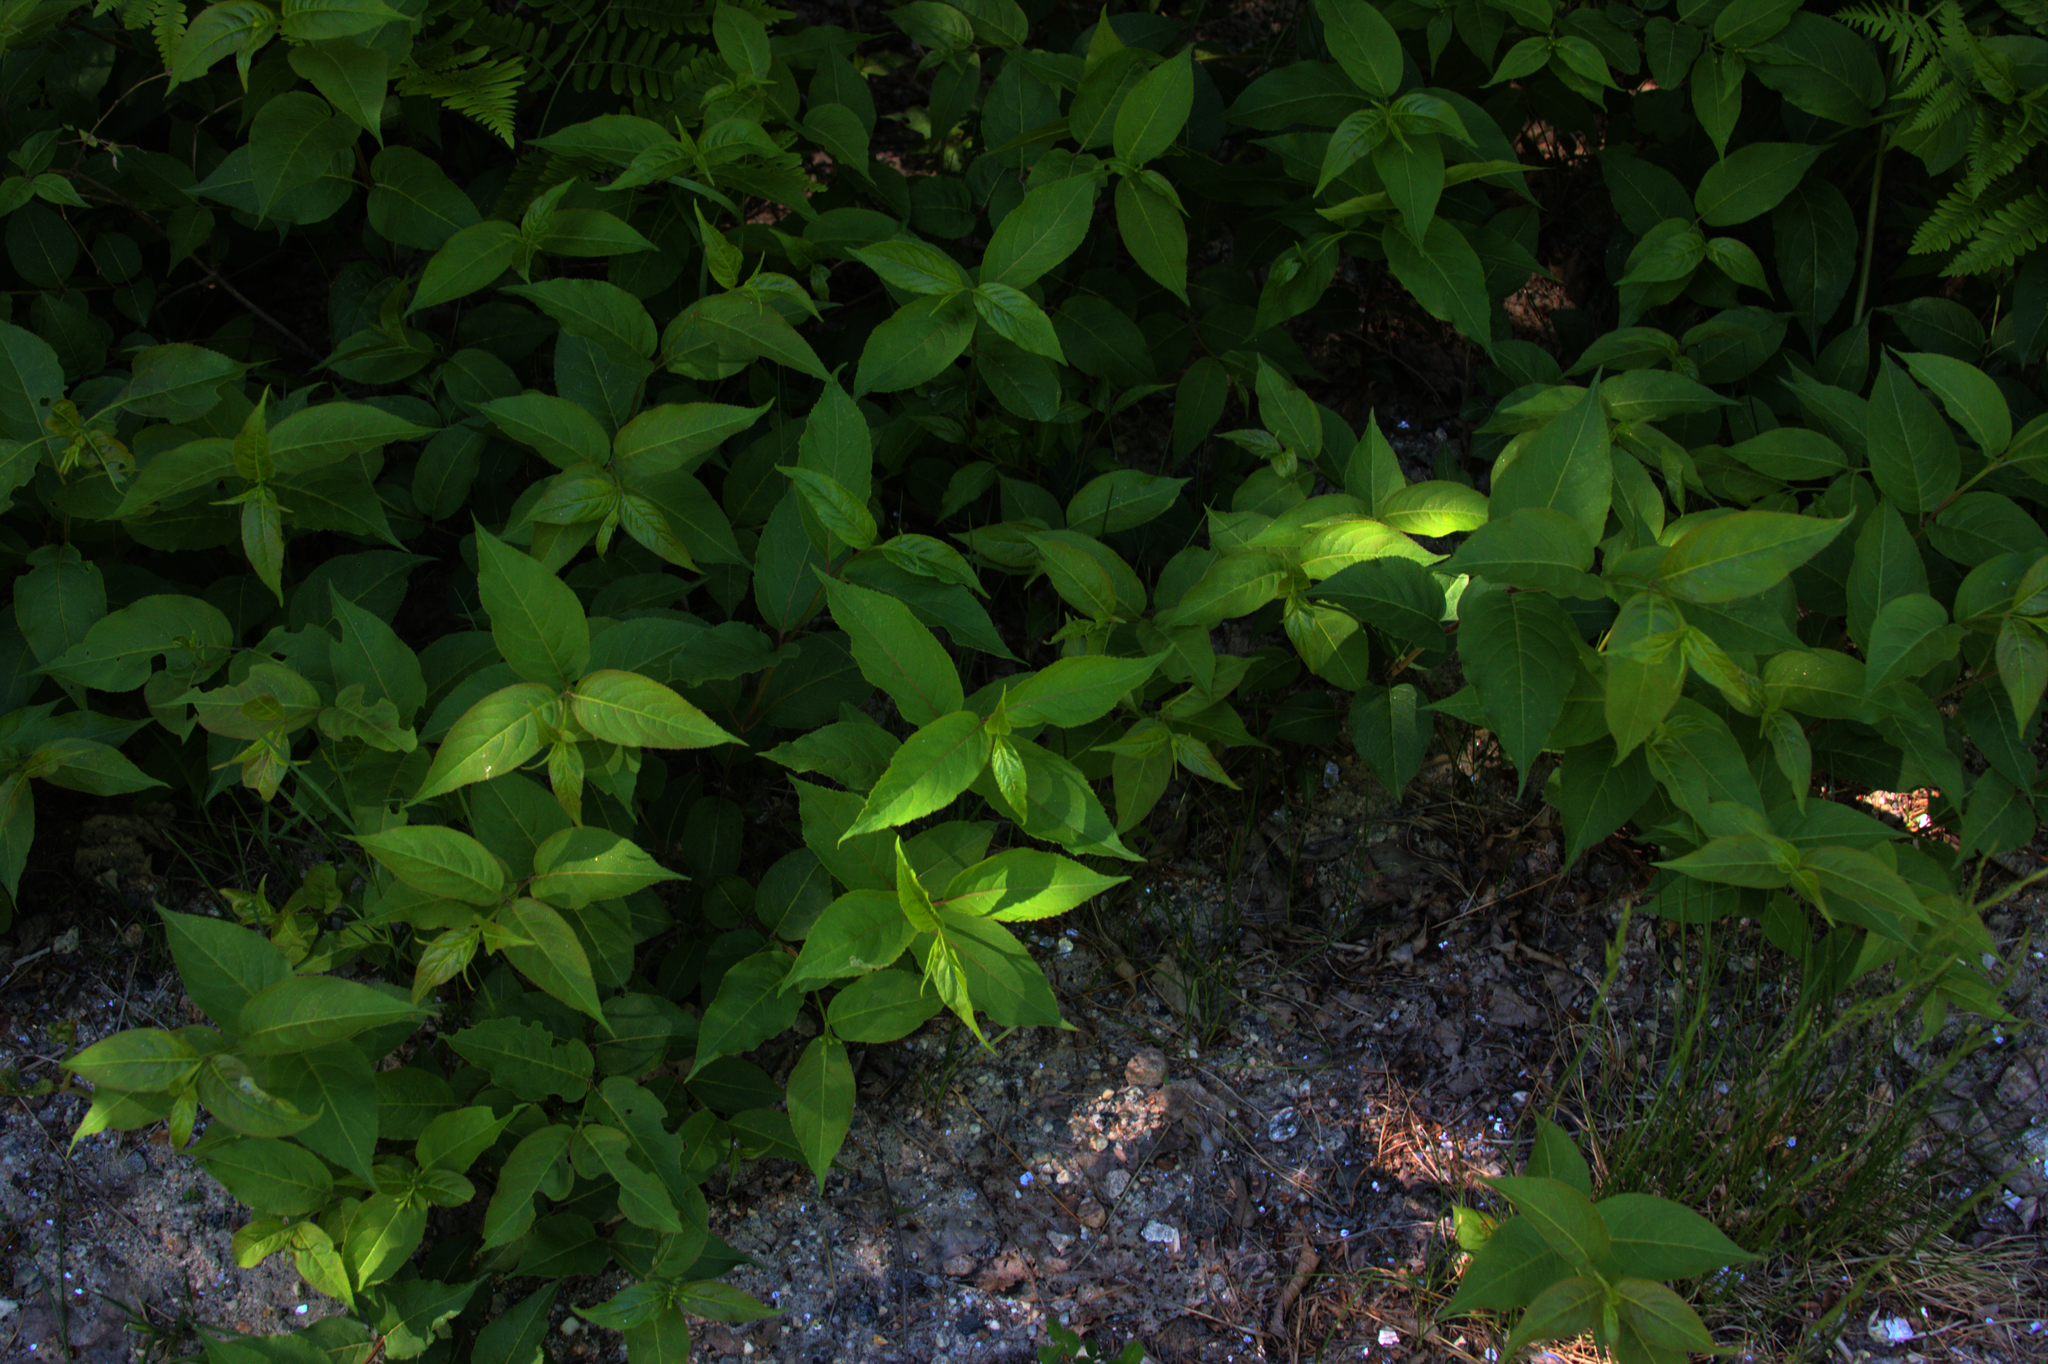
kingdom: Plantae
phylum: Tracheophyta
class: Magnoliopsida
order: Dipsacales
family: Caprifoliaceae
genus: Diervilla
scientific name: Diervilla lonicera
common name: Bush-honeysuckle
